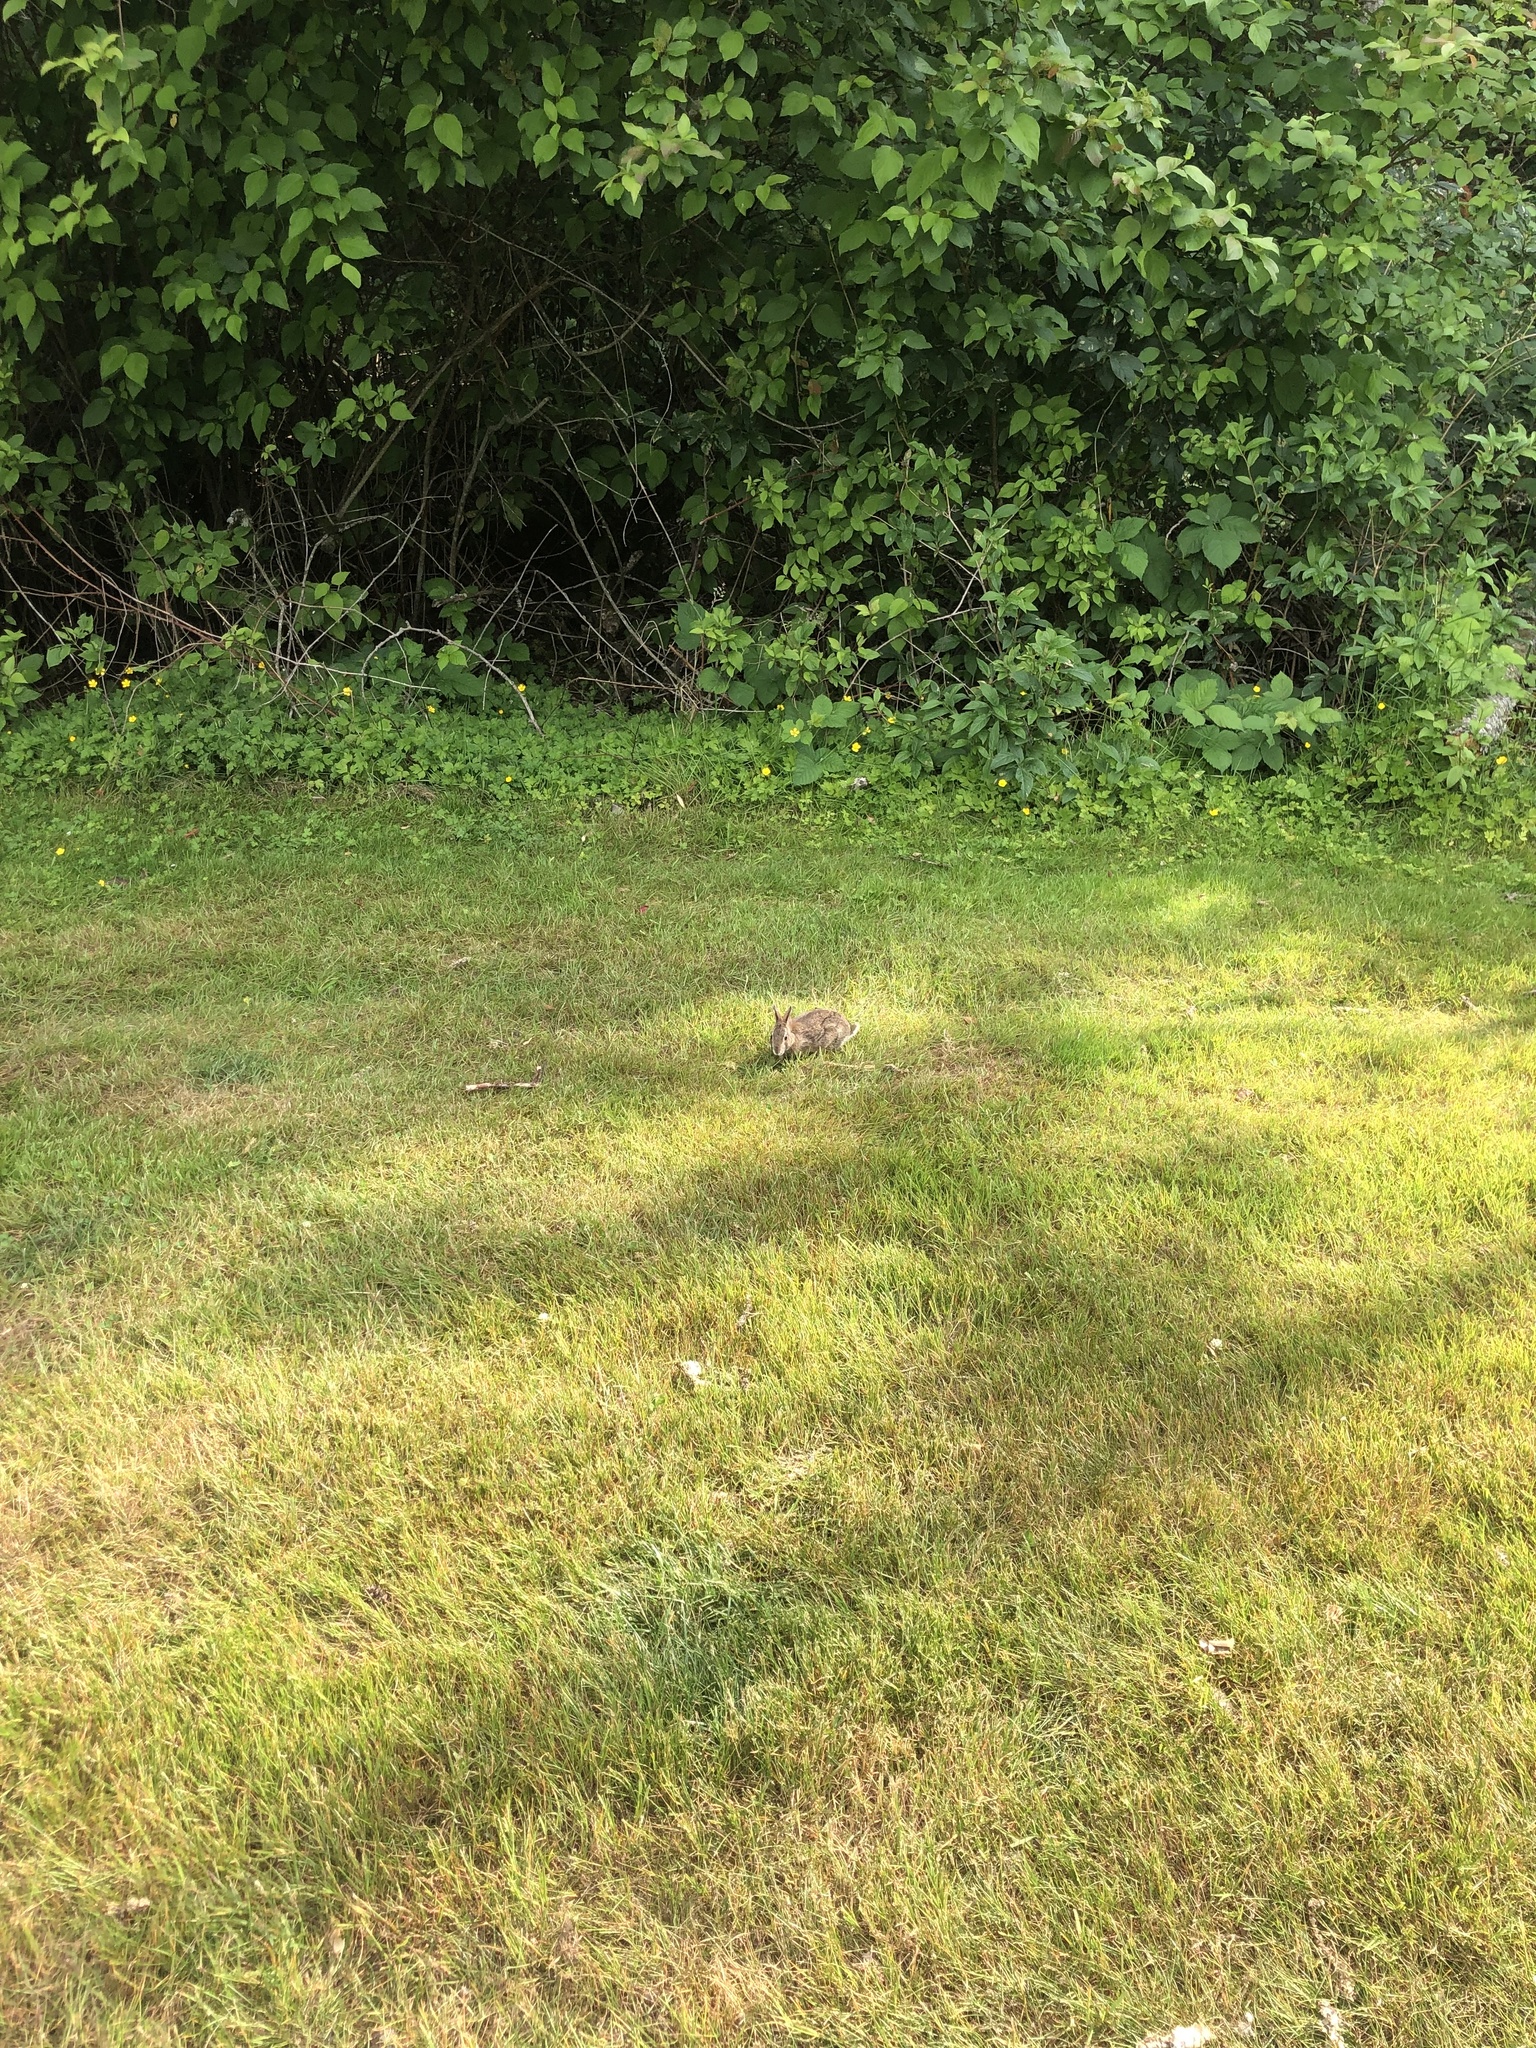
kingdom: Animalia
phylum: Chordata
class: Mammalia
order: Lagomorpha
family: Leporidae
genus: Sylvilagus
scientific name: Sylvilagus floridanus
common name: Eastern cottontail
